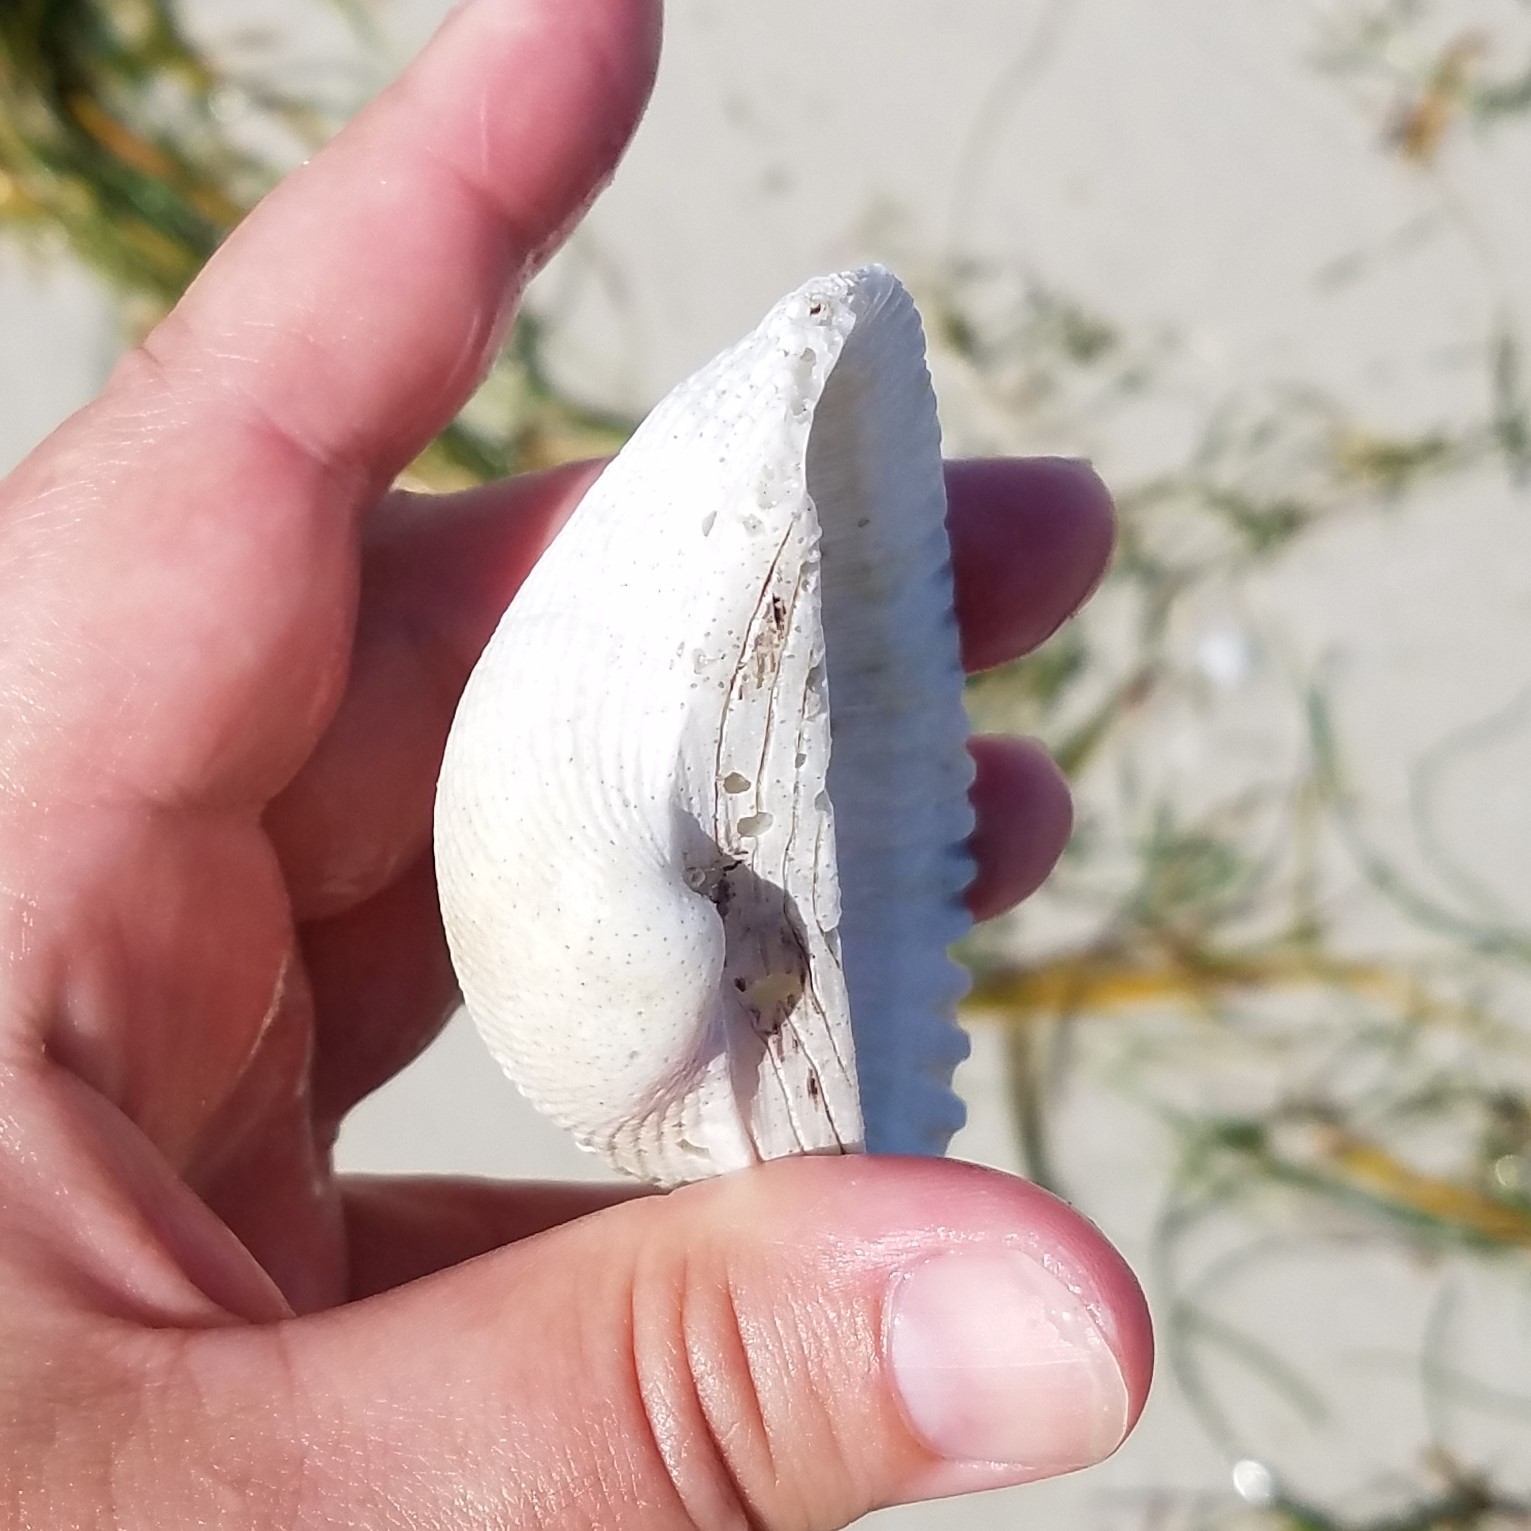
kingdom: Animalia
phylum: Mollusca
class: Bivalvia
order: Arcida
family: Arcidae
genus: Anadara
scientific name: Anadara secticostata
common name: Cut-ribbed ark
